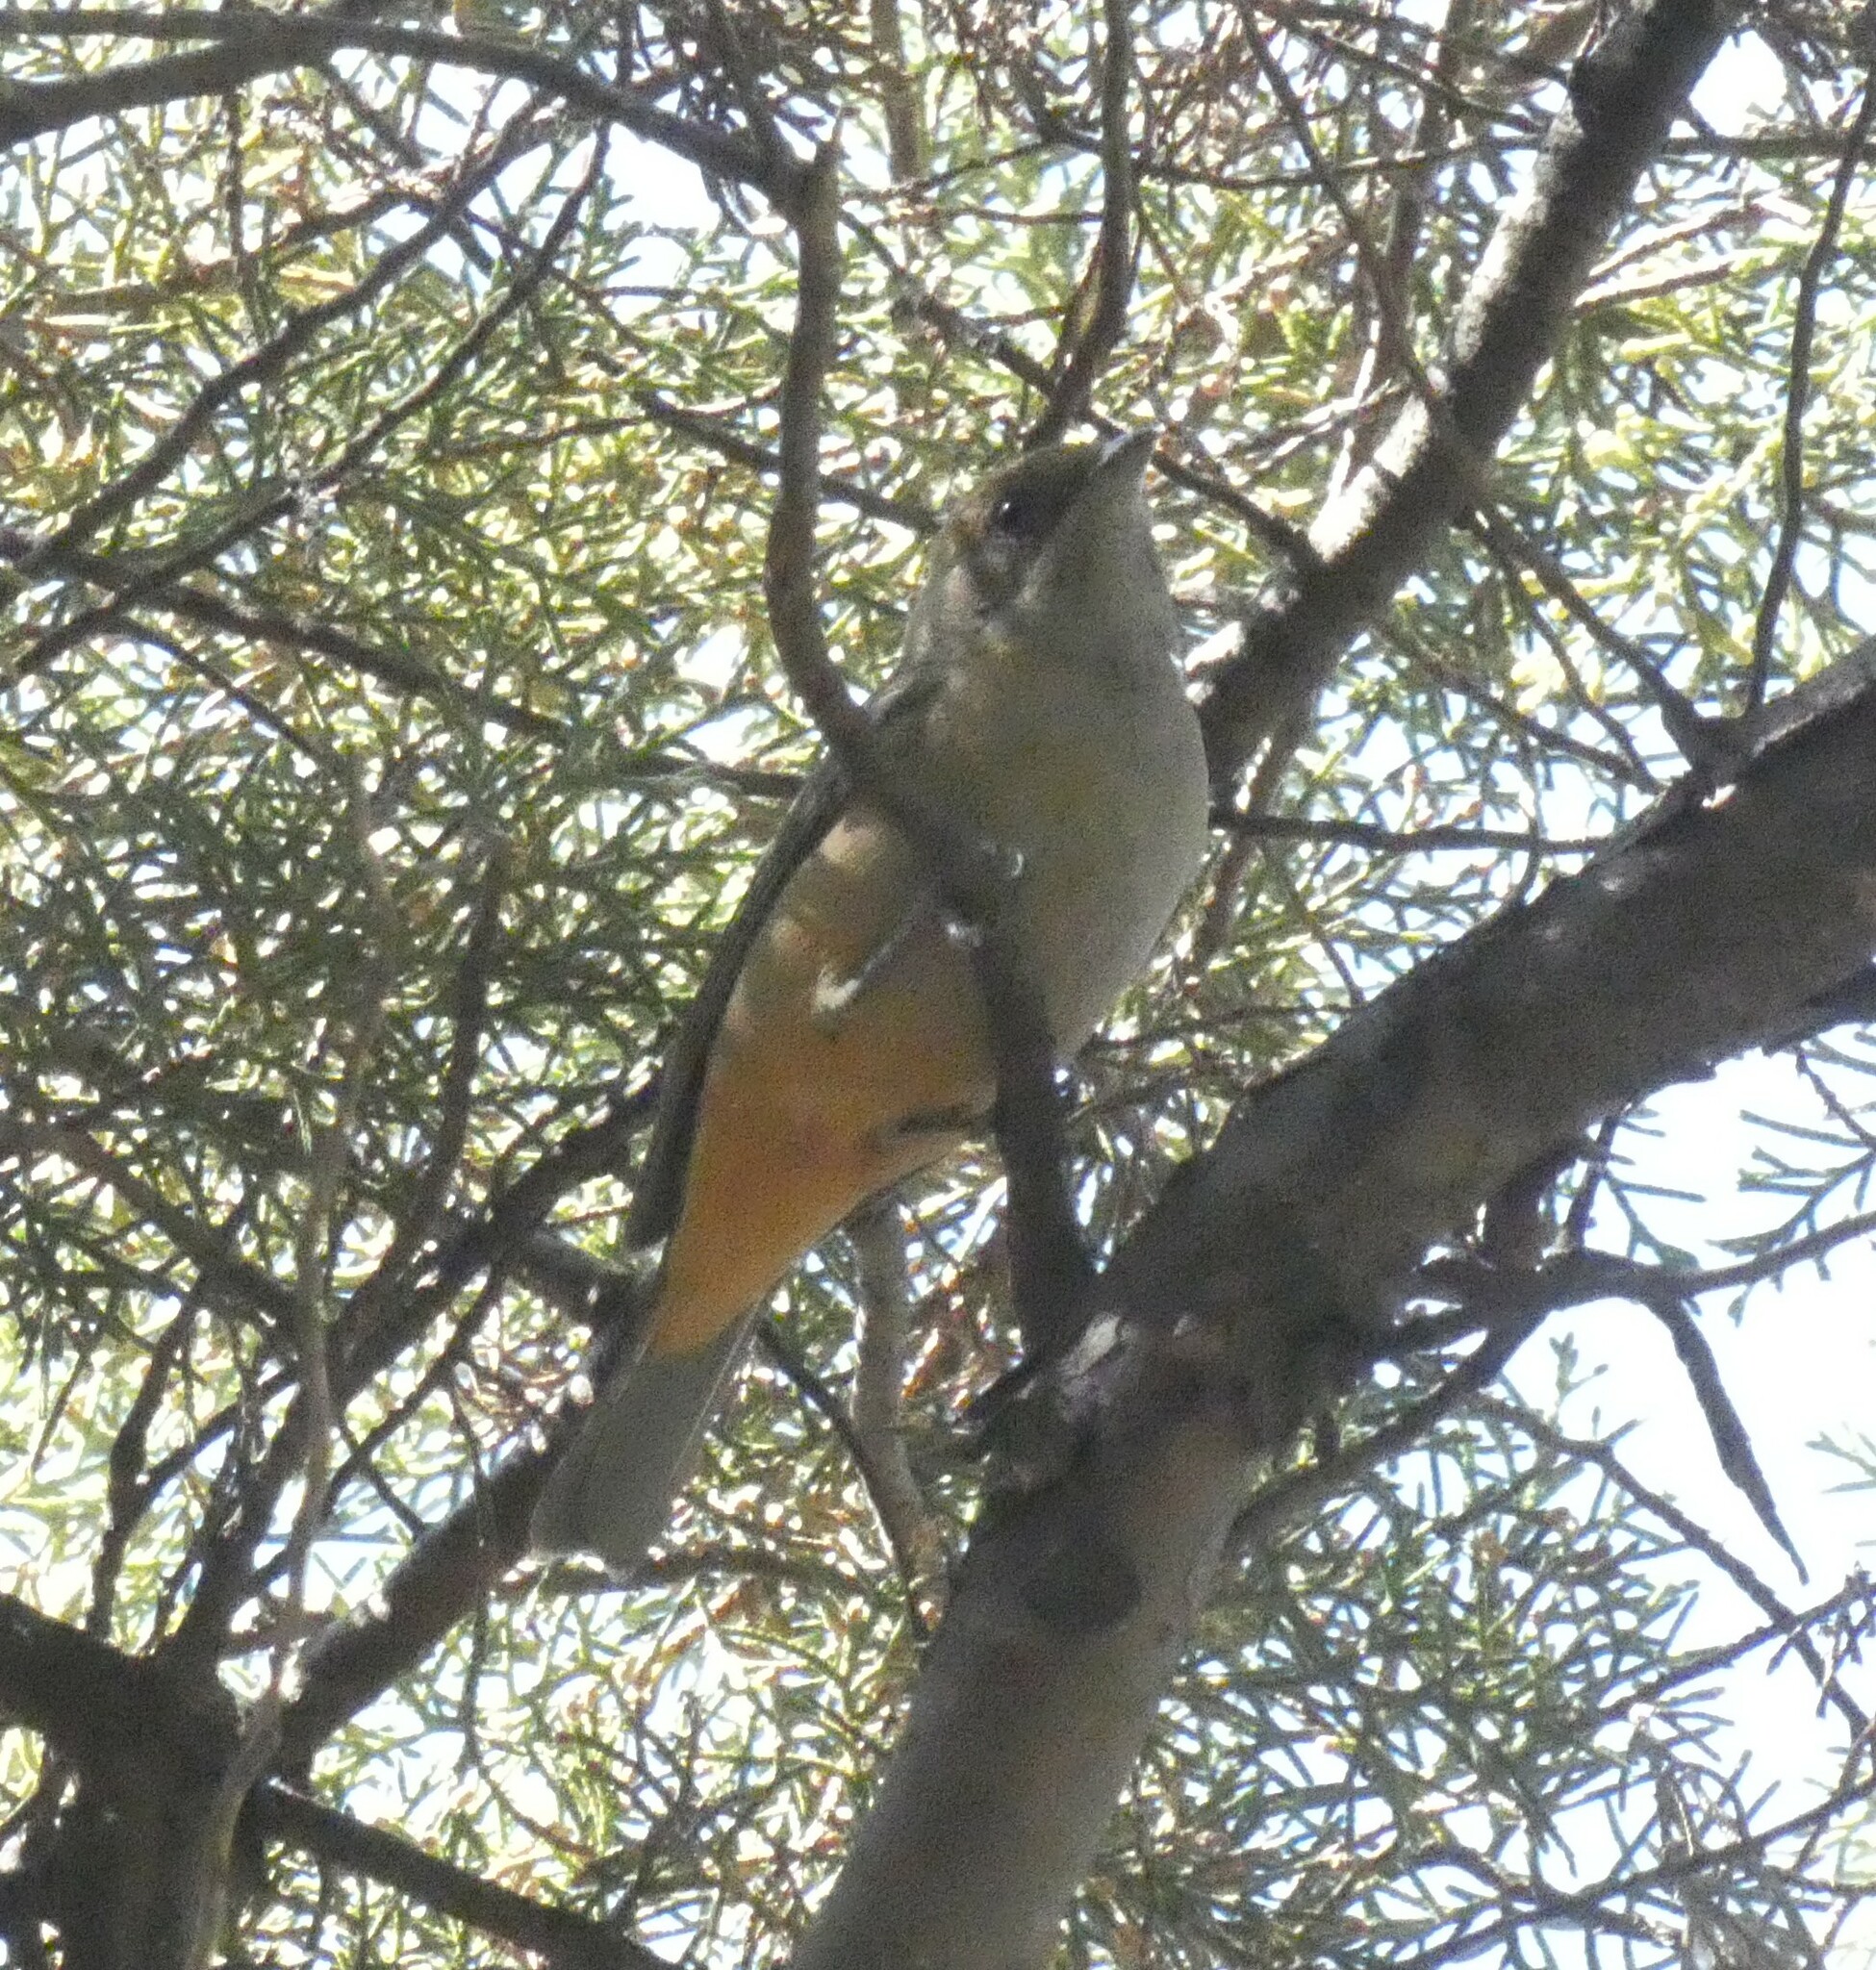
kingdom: Animalia
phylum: Chordata
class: Aves
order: Passeriformes
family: Thraupidae
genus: Stilpnia
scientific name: Stilpnia cayana
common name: Burnished-buff tanager
